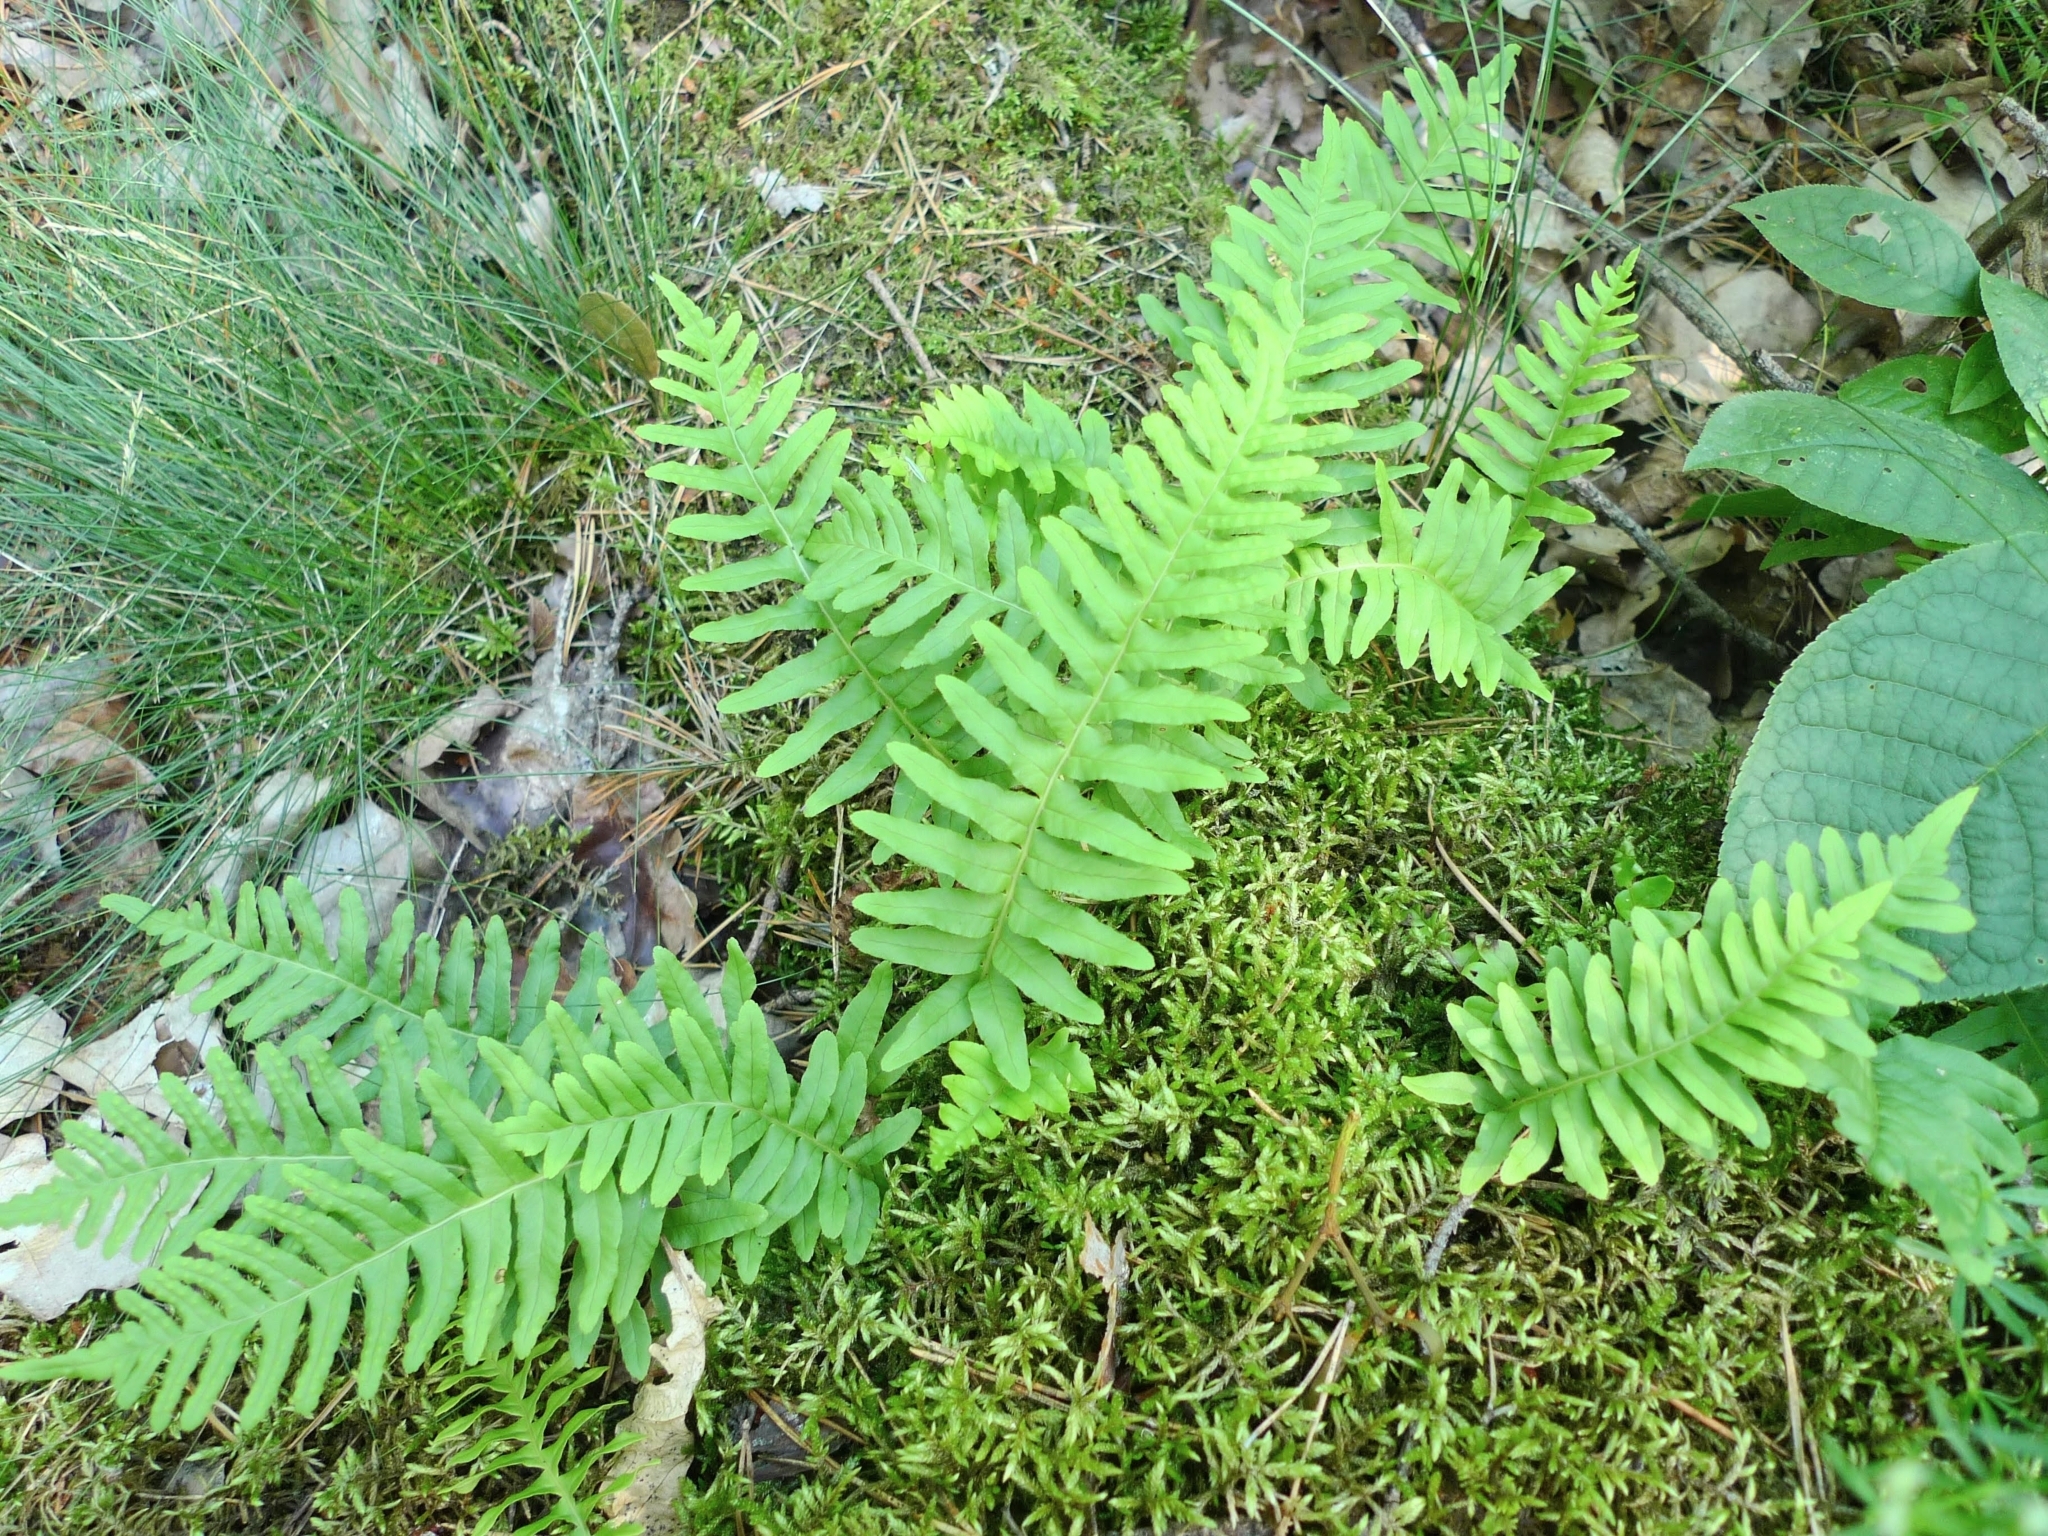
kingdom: Plantae
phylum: Tracheophyta
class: Polypodiopsida
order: Polypodiales
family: Polypodiaceae
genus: Polypodium
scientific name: Polypodium vulgare
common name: Common polypody
